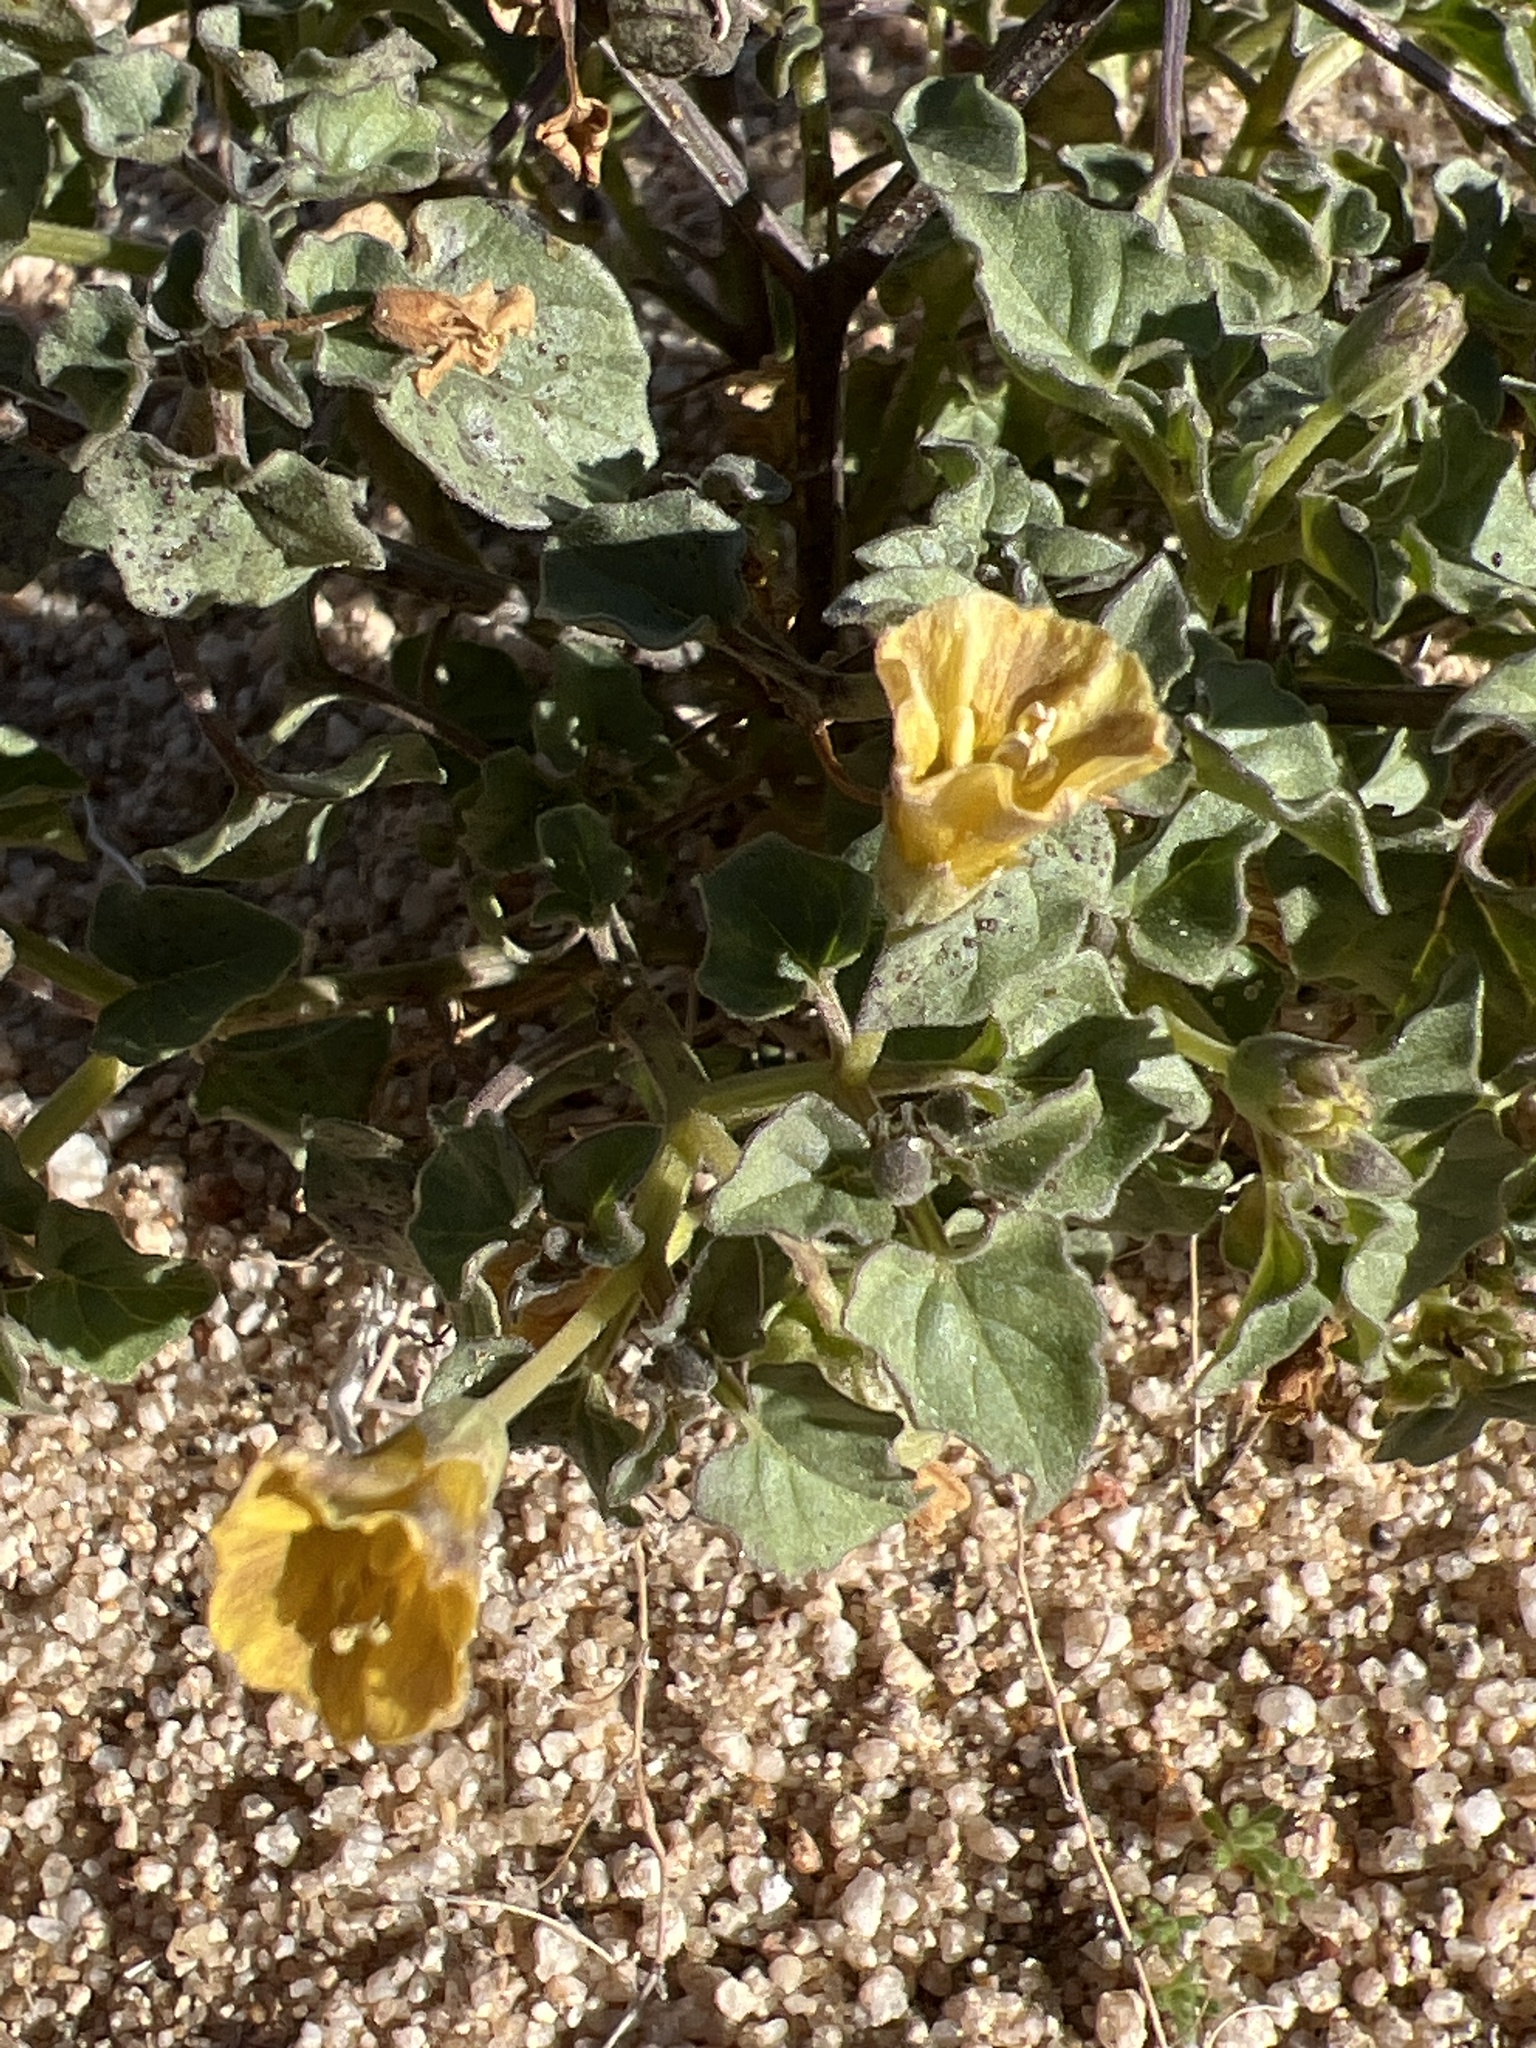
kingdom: Plantae
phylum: Tracheophyta
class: Magnoliopsida
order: Solanales
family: Solanaceae
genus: Physalis
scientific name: Physalis crassifolia
